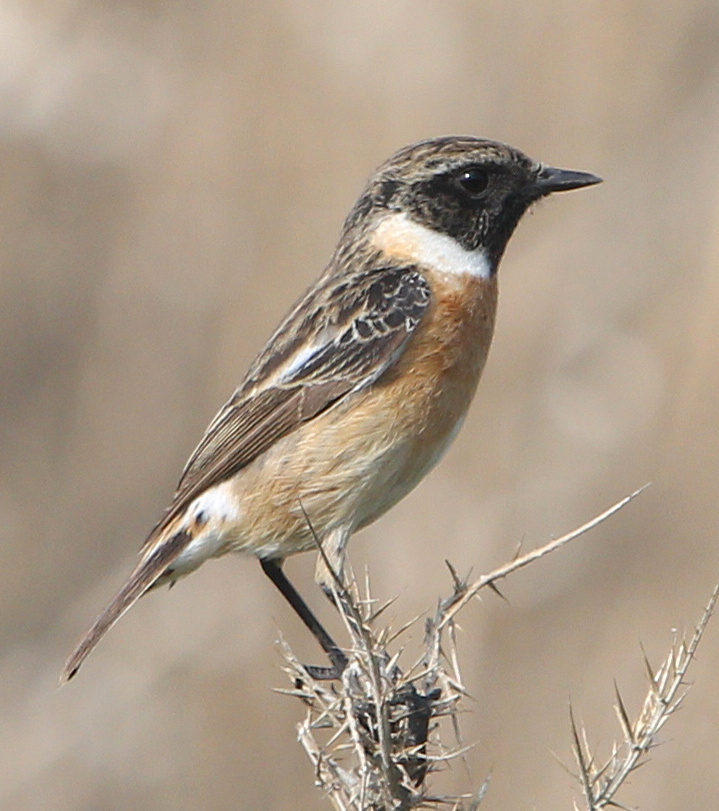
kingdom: Animalia
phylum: Chordata
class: Aves
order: Passeriformes
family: Muscicapidae
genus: Saxicola
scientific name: Saxicola rubicola
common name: European stonechat
